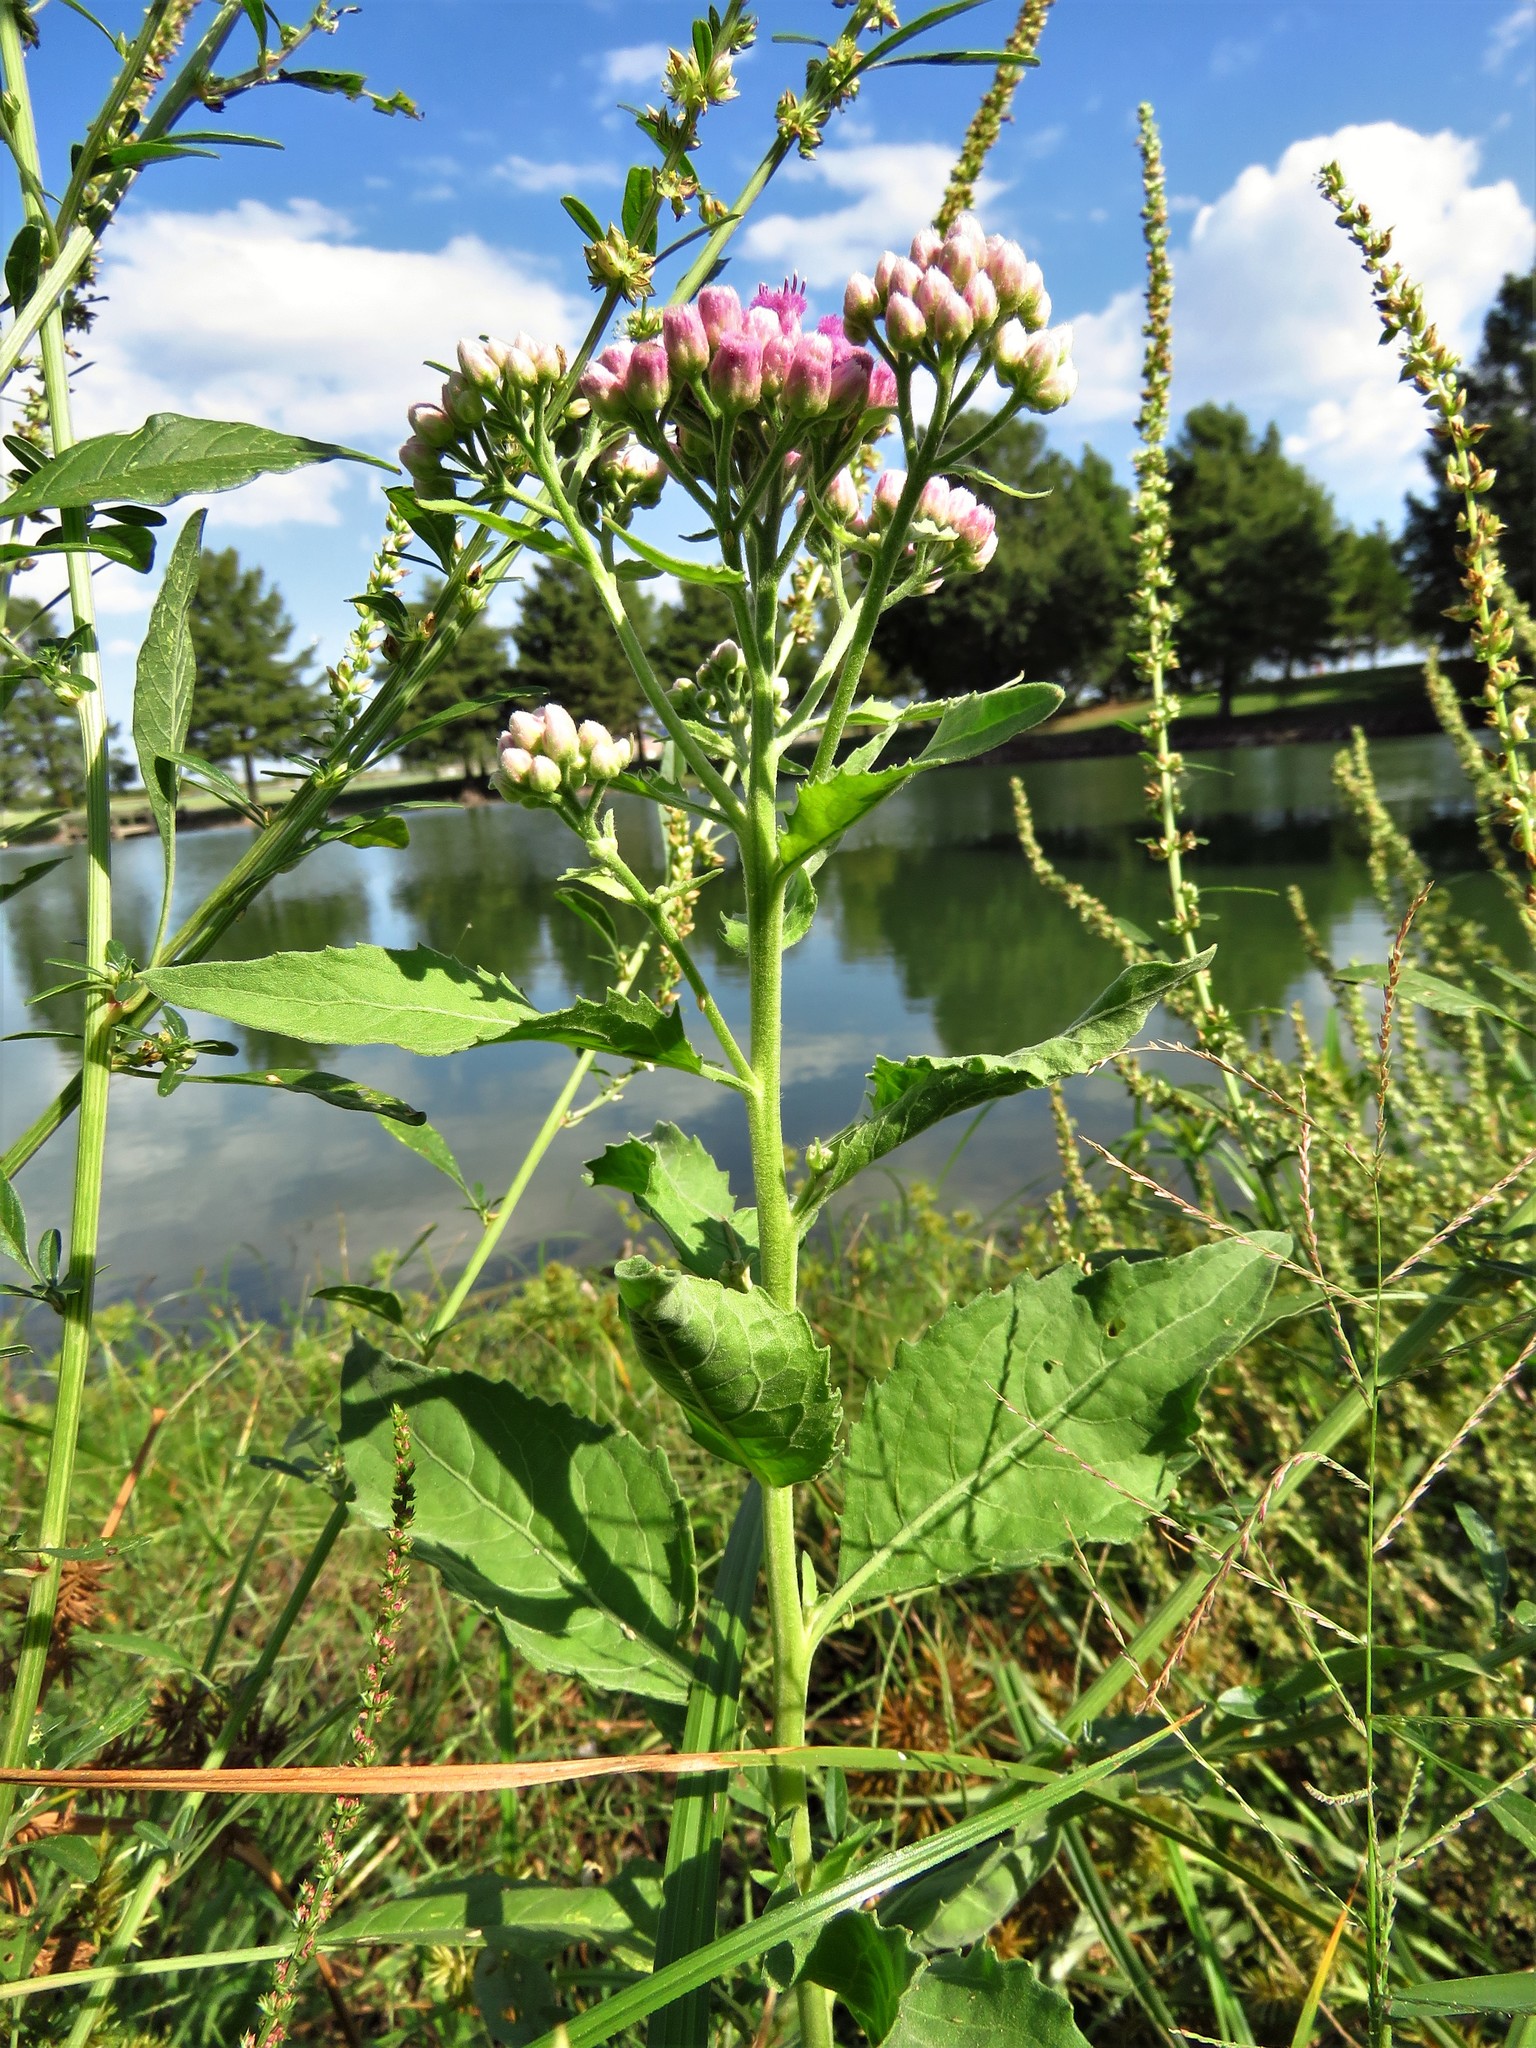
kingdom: Plantae
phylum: Tracheophyta
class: Magnoliopsida
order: Asterales
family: Asteraceae
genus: Pluchea
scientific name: Pluchea odorata
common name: Saltmarsh fleabane
